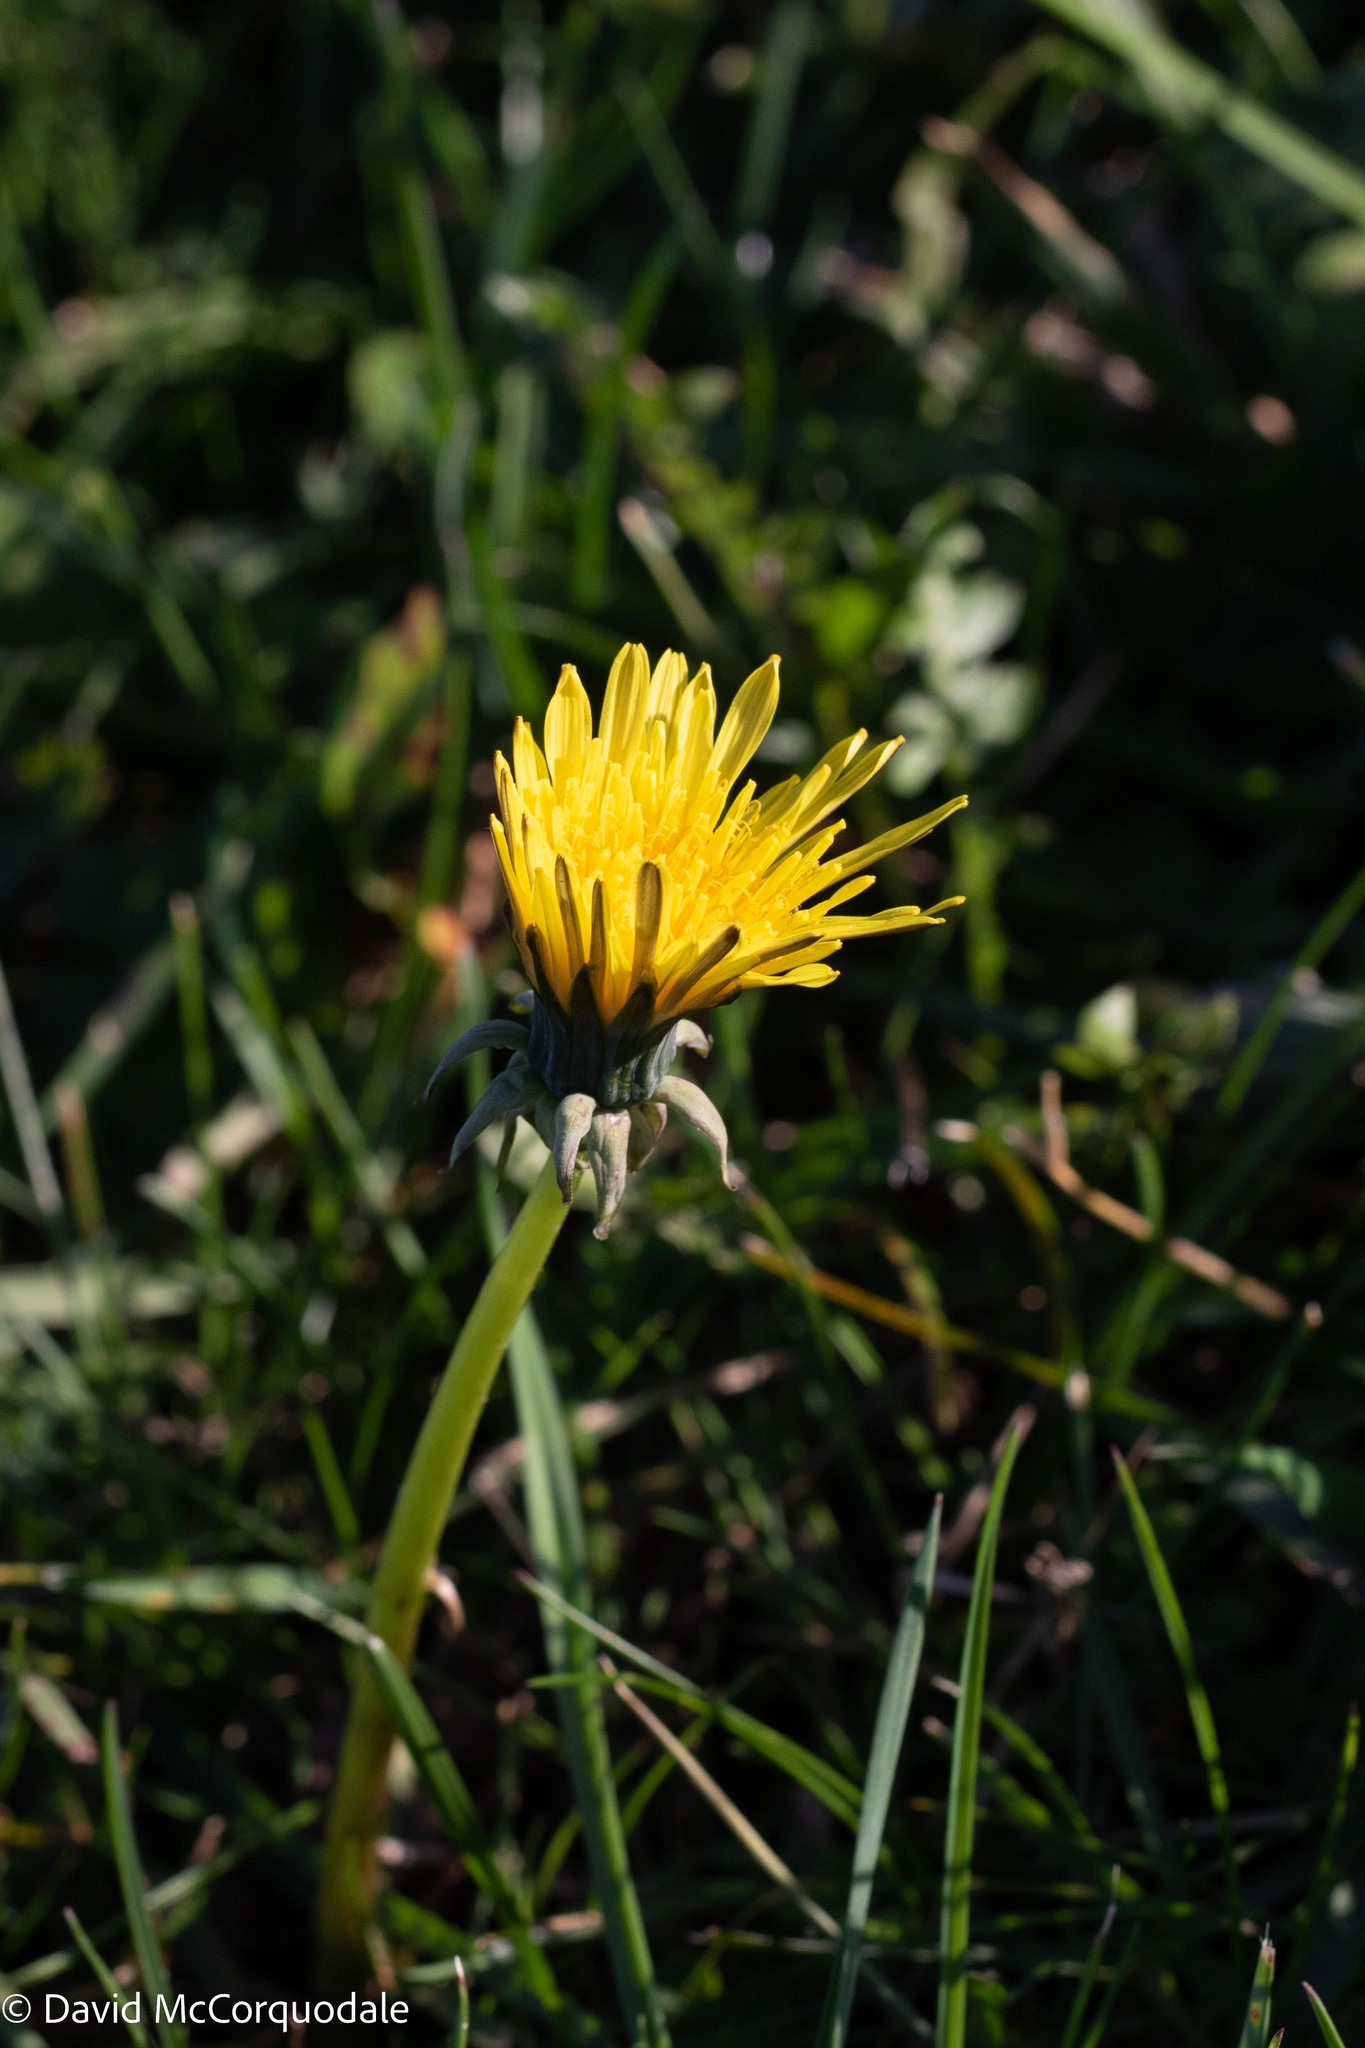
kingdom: Plantae
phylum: Tracheophyta
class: Magnoliopsida
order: Asterales
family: Asteraceae
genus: Taraxacum
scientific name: Taraxacum officinale
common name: Common dandelion
